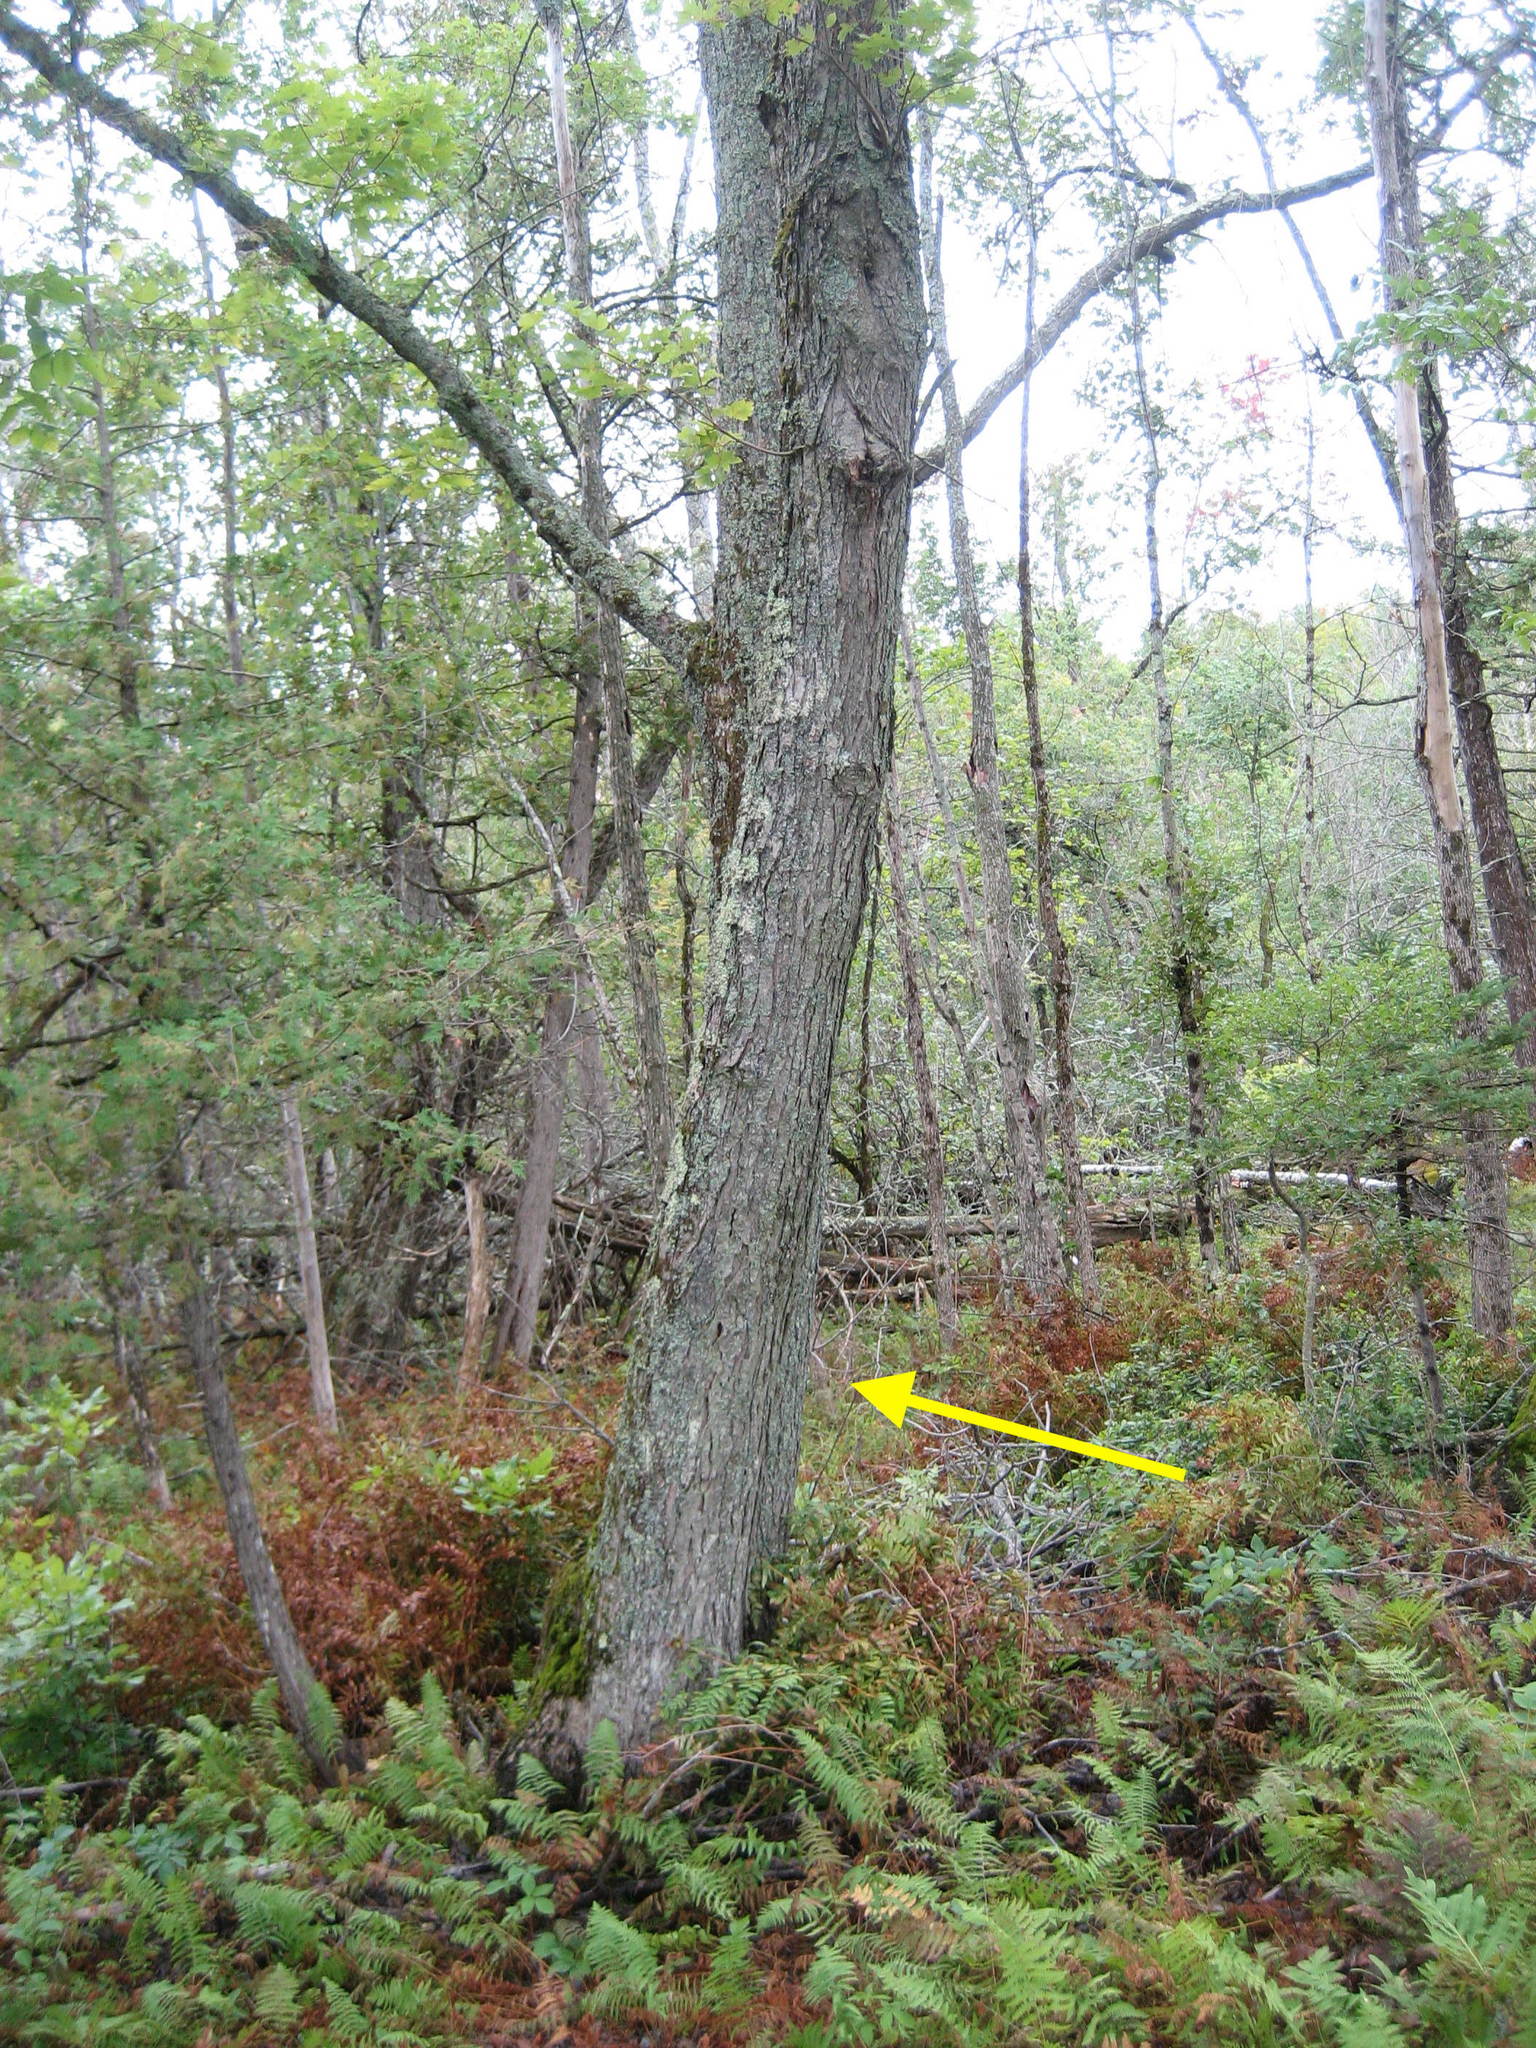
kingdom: Plantae
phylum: Tracheophyta
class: Magnoliopsida
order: Sapindales
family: Sapindaceae
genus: Acer
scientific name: Acer saccharinum
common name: Silver maple
